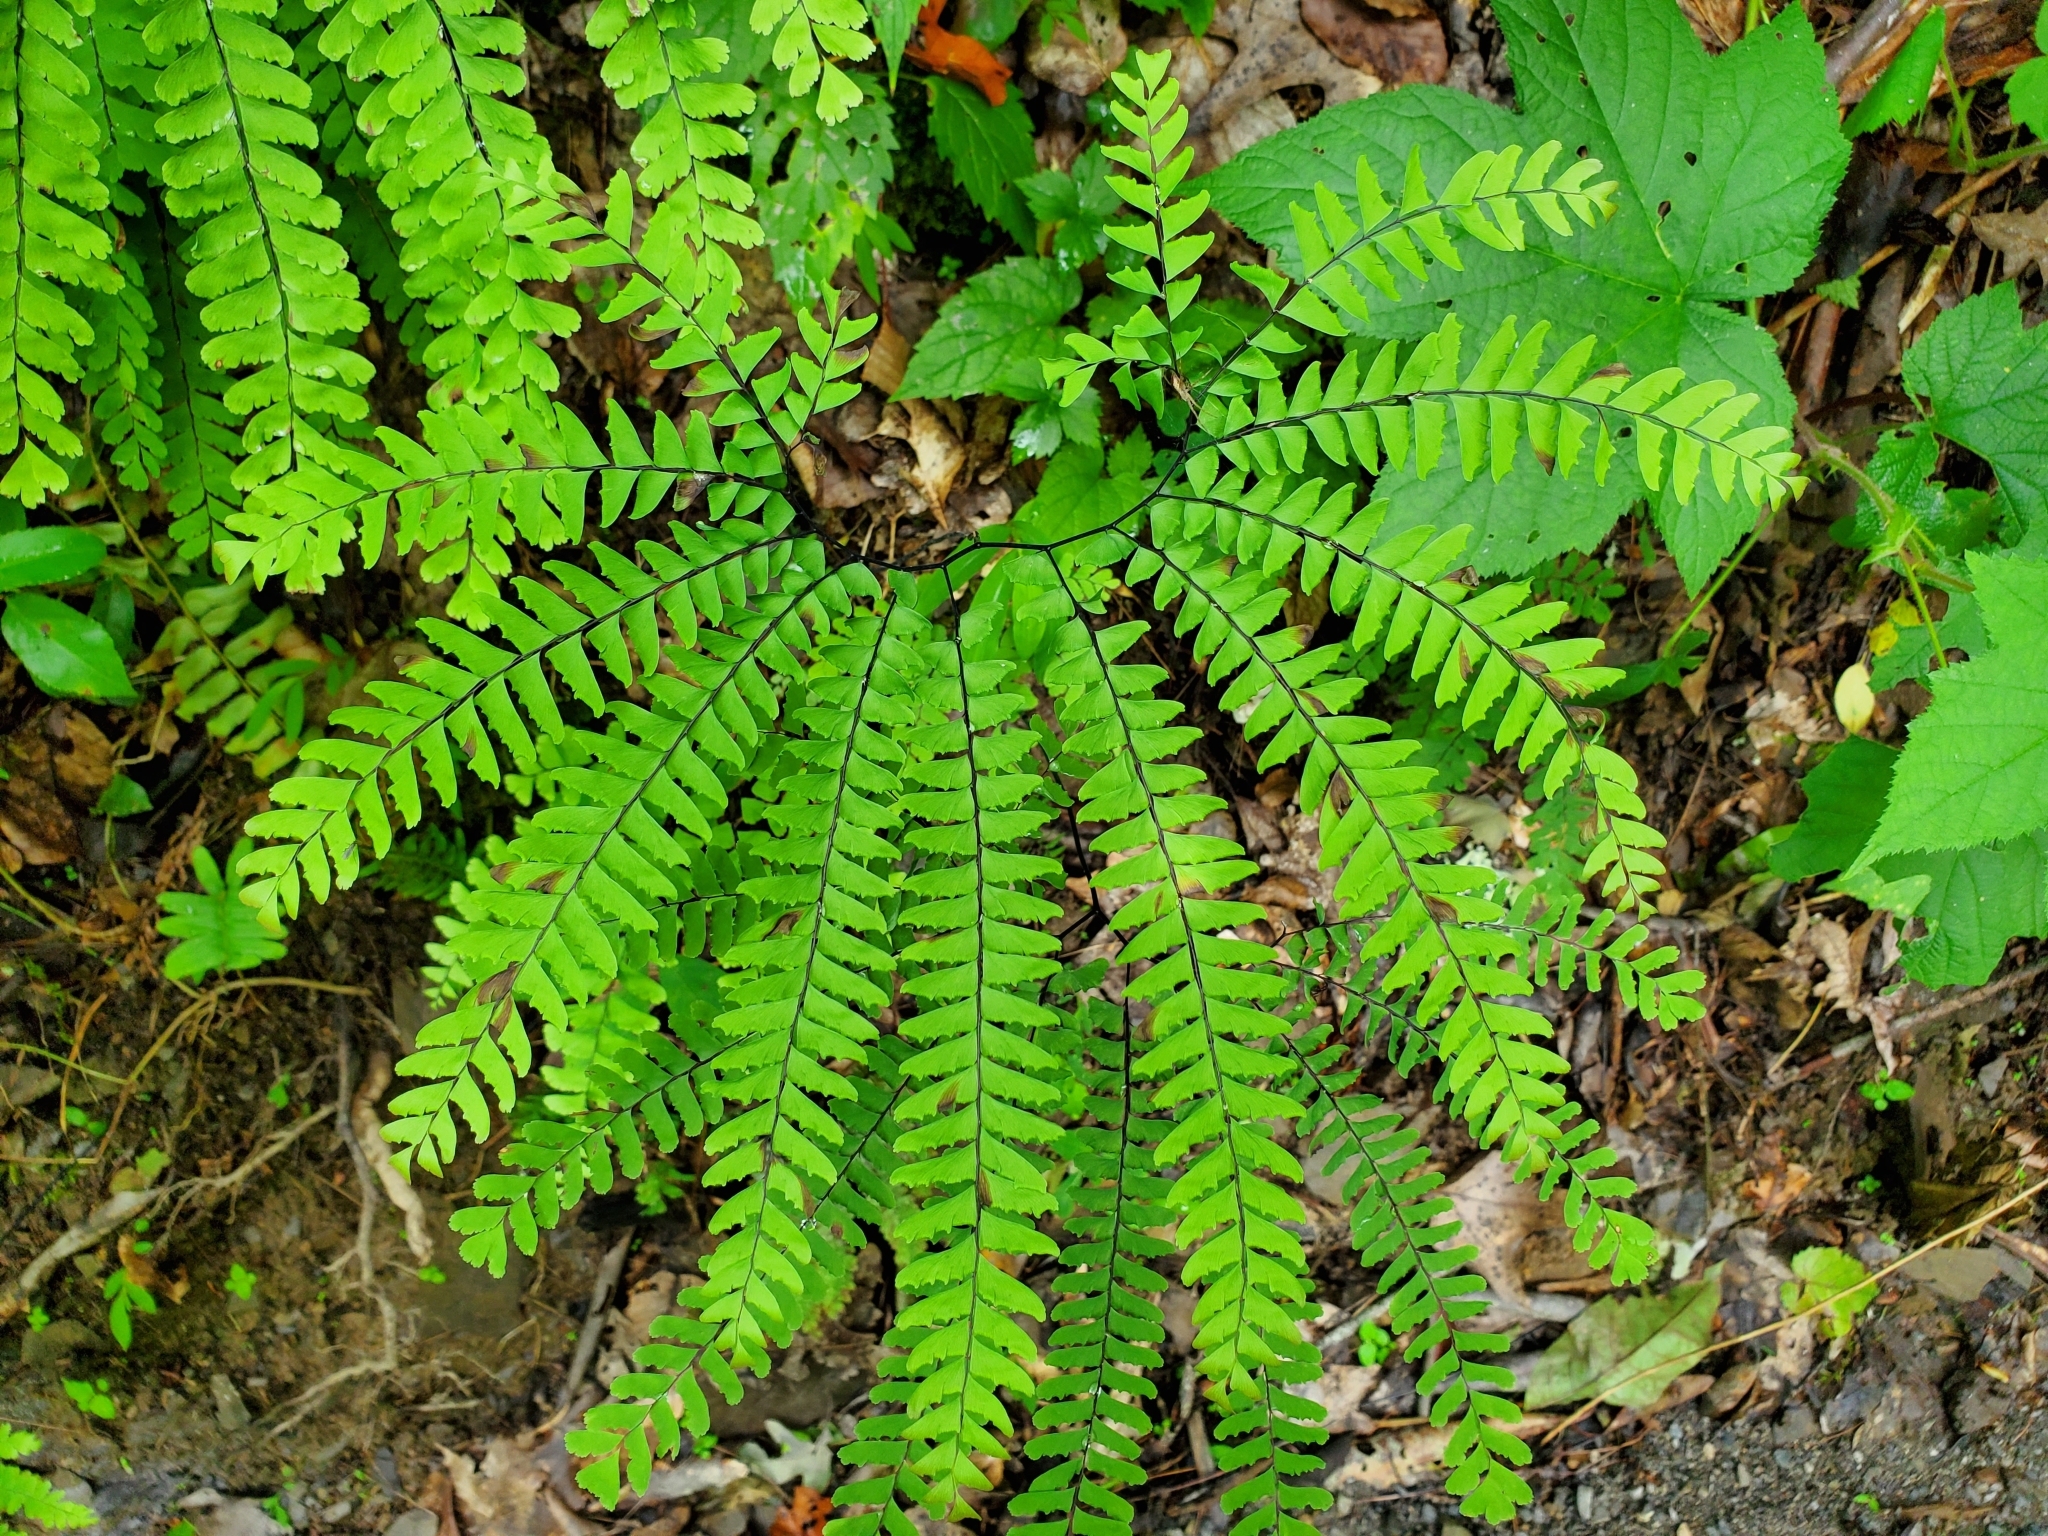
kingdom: Plantae
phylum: Tracheophyta
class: Polypodiopsida
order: Polypodiales
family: Pteridaceae
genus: Adiantum
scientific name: Adiantum pedatum
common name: Five-finger fern
